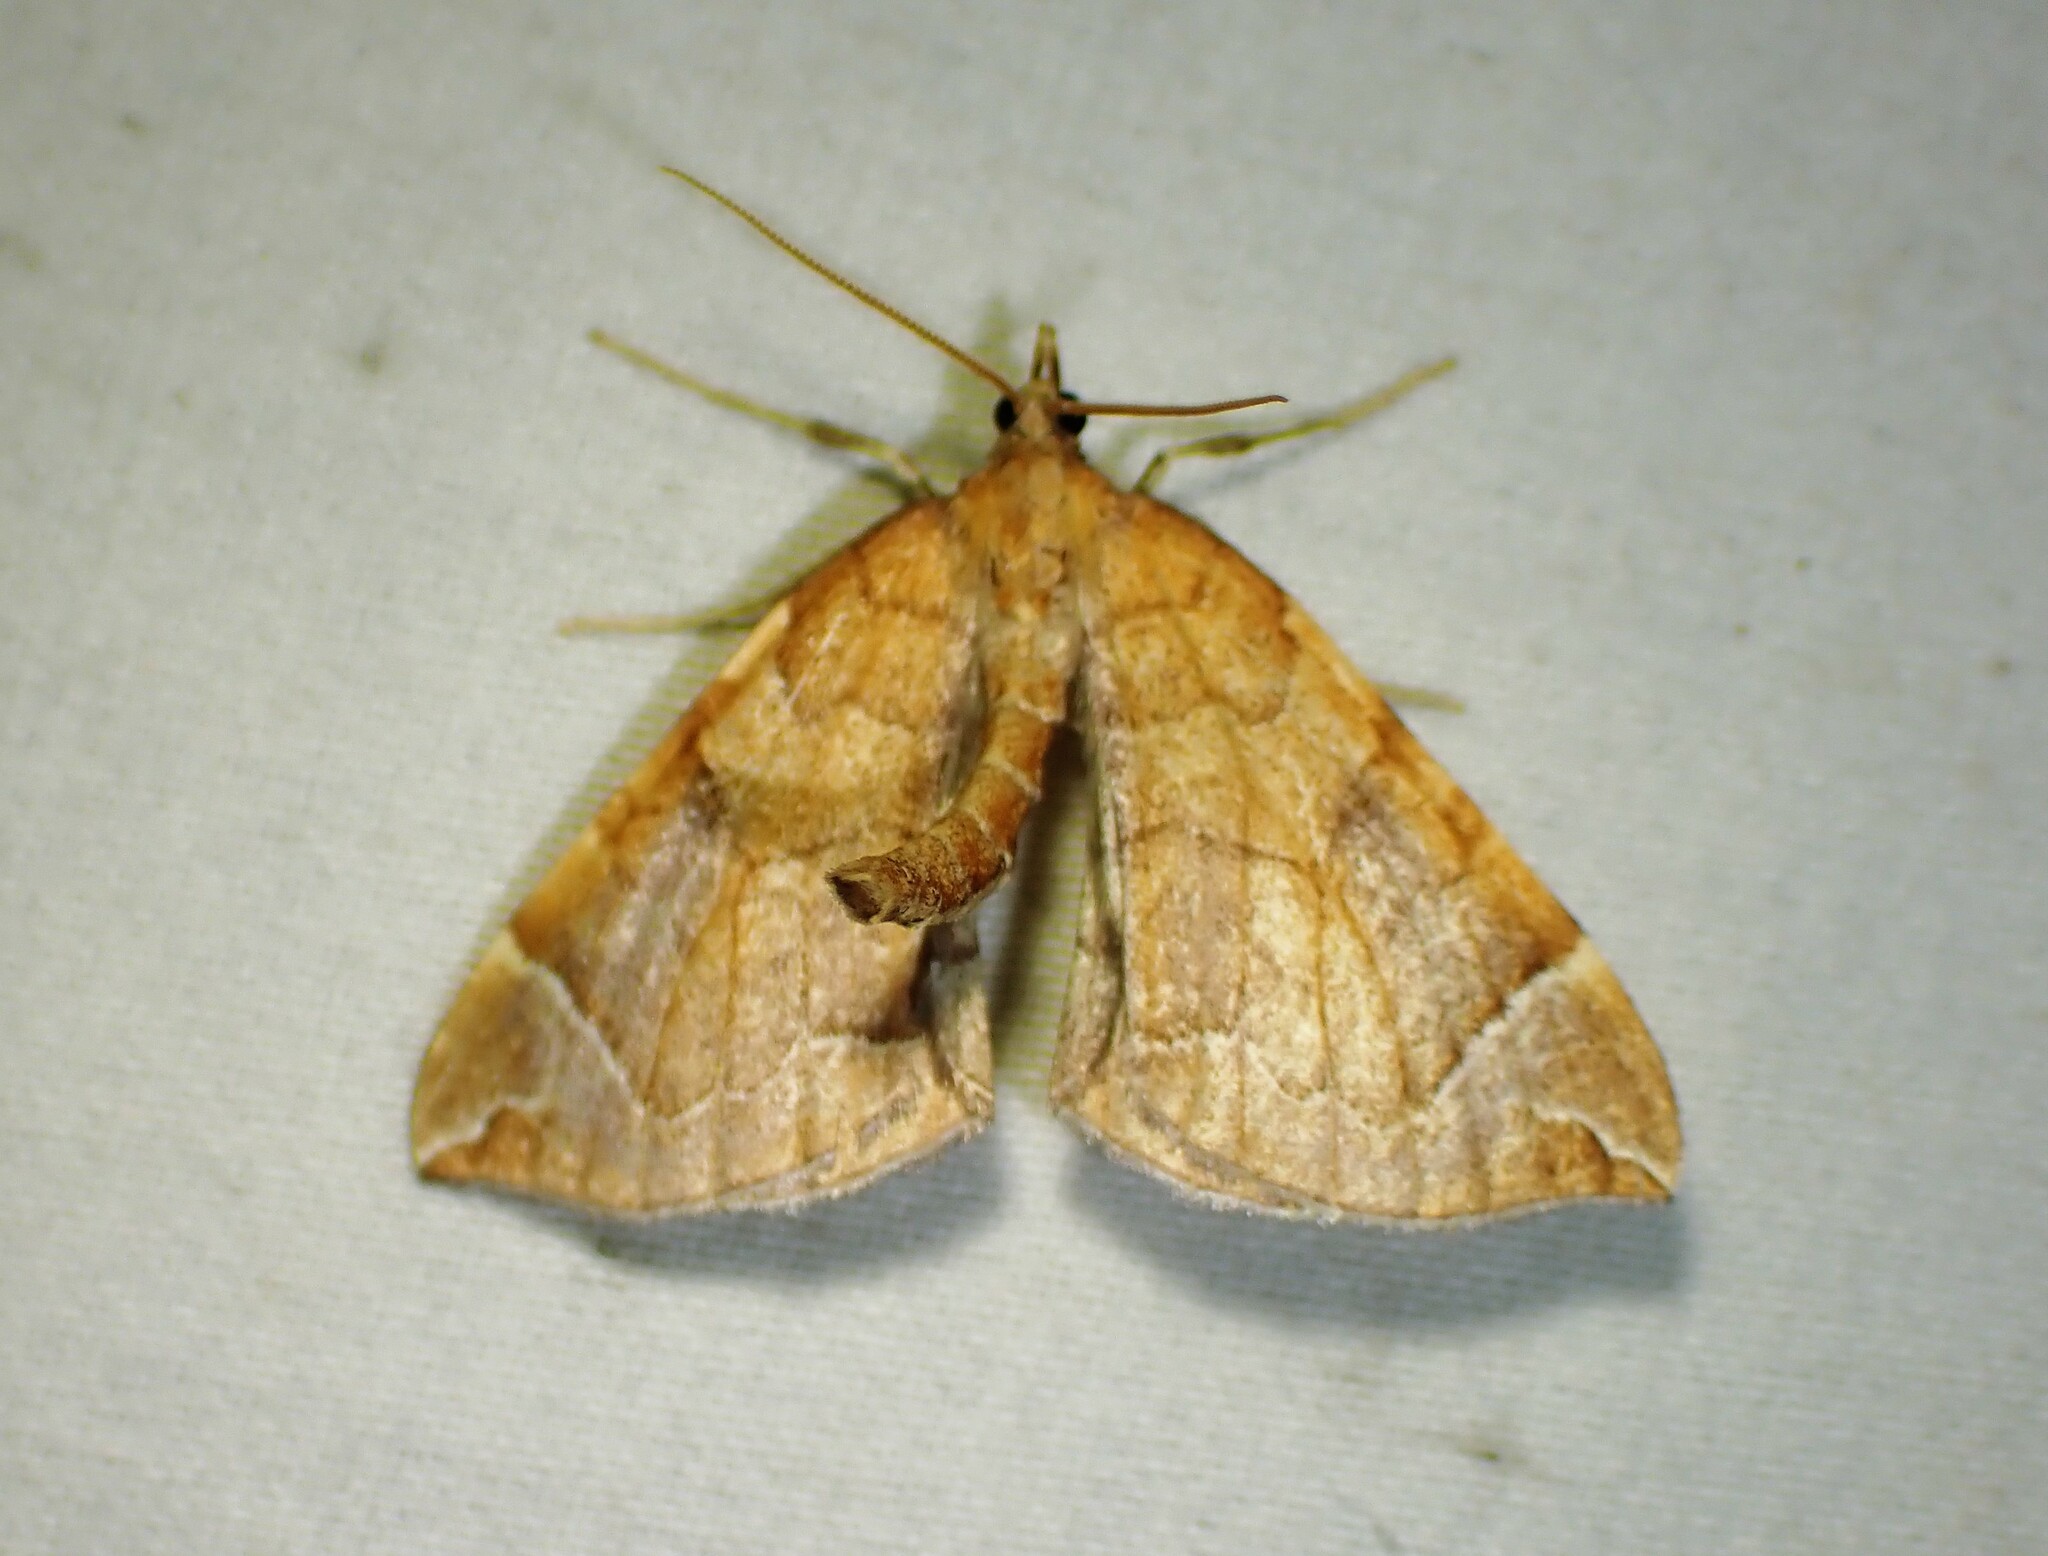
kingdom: Animalia
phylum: Arthropoda
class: Insecta
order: Lepidoptera
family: Geometridae
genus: Eulithis
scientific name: Eulithis testata
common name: Chevron
